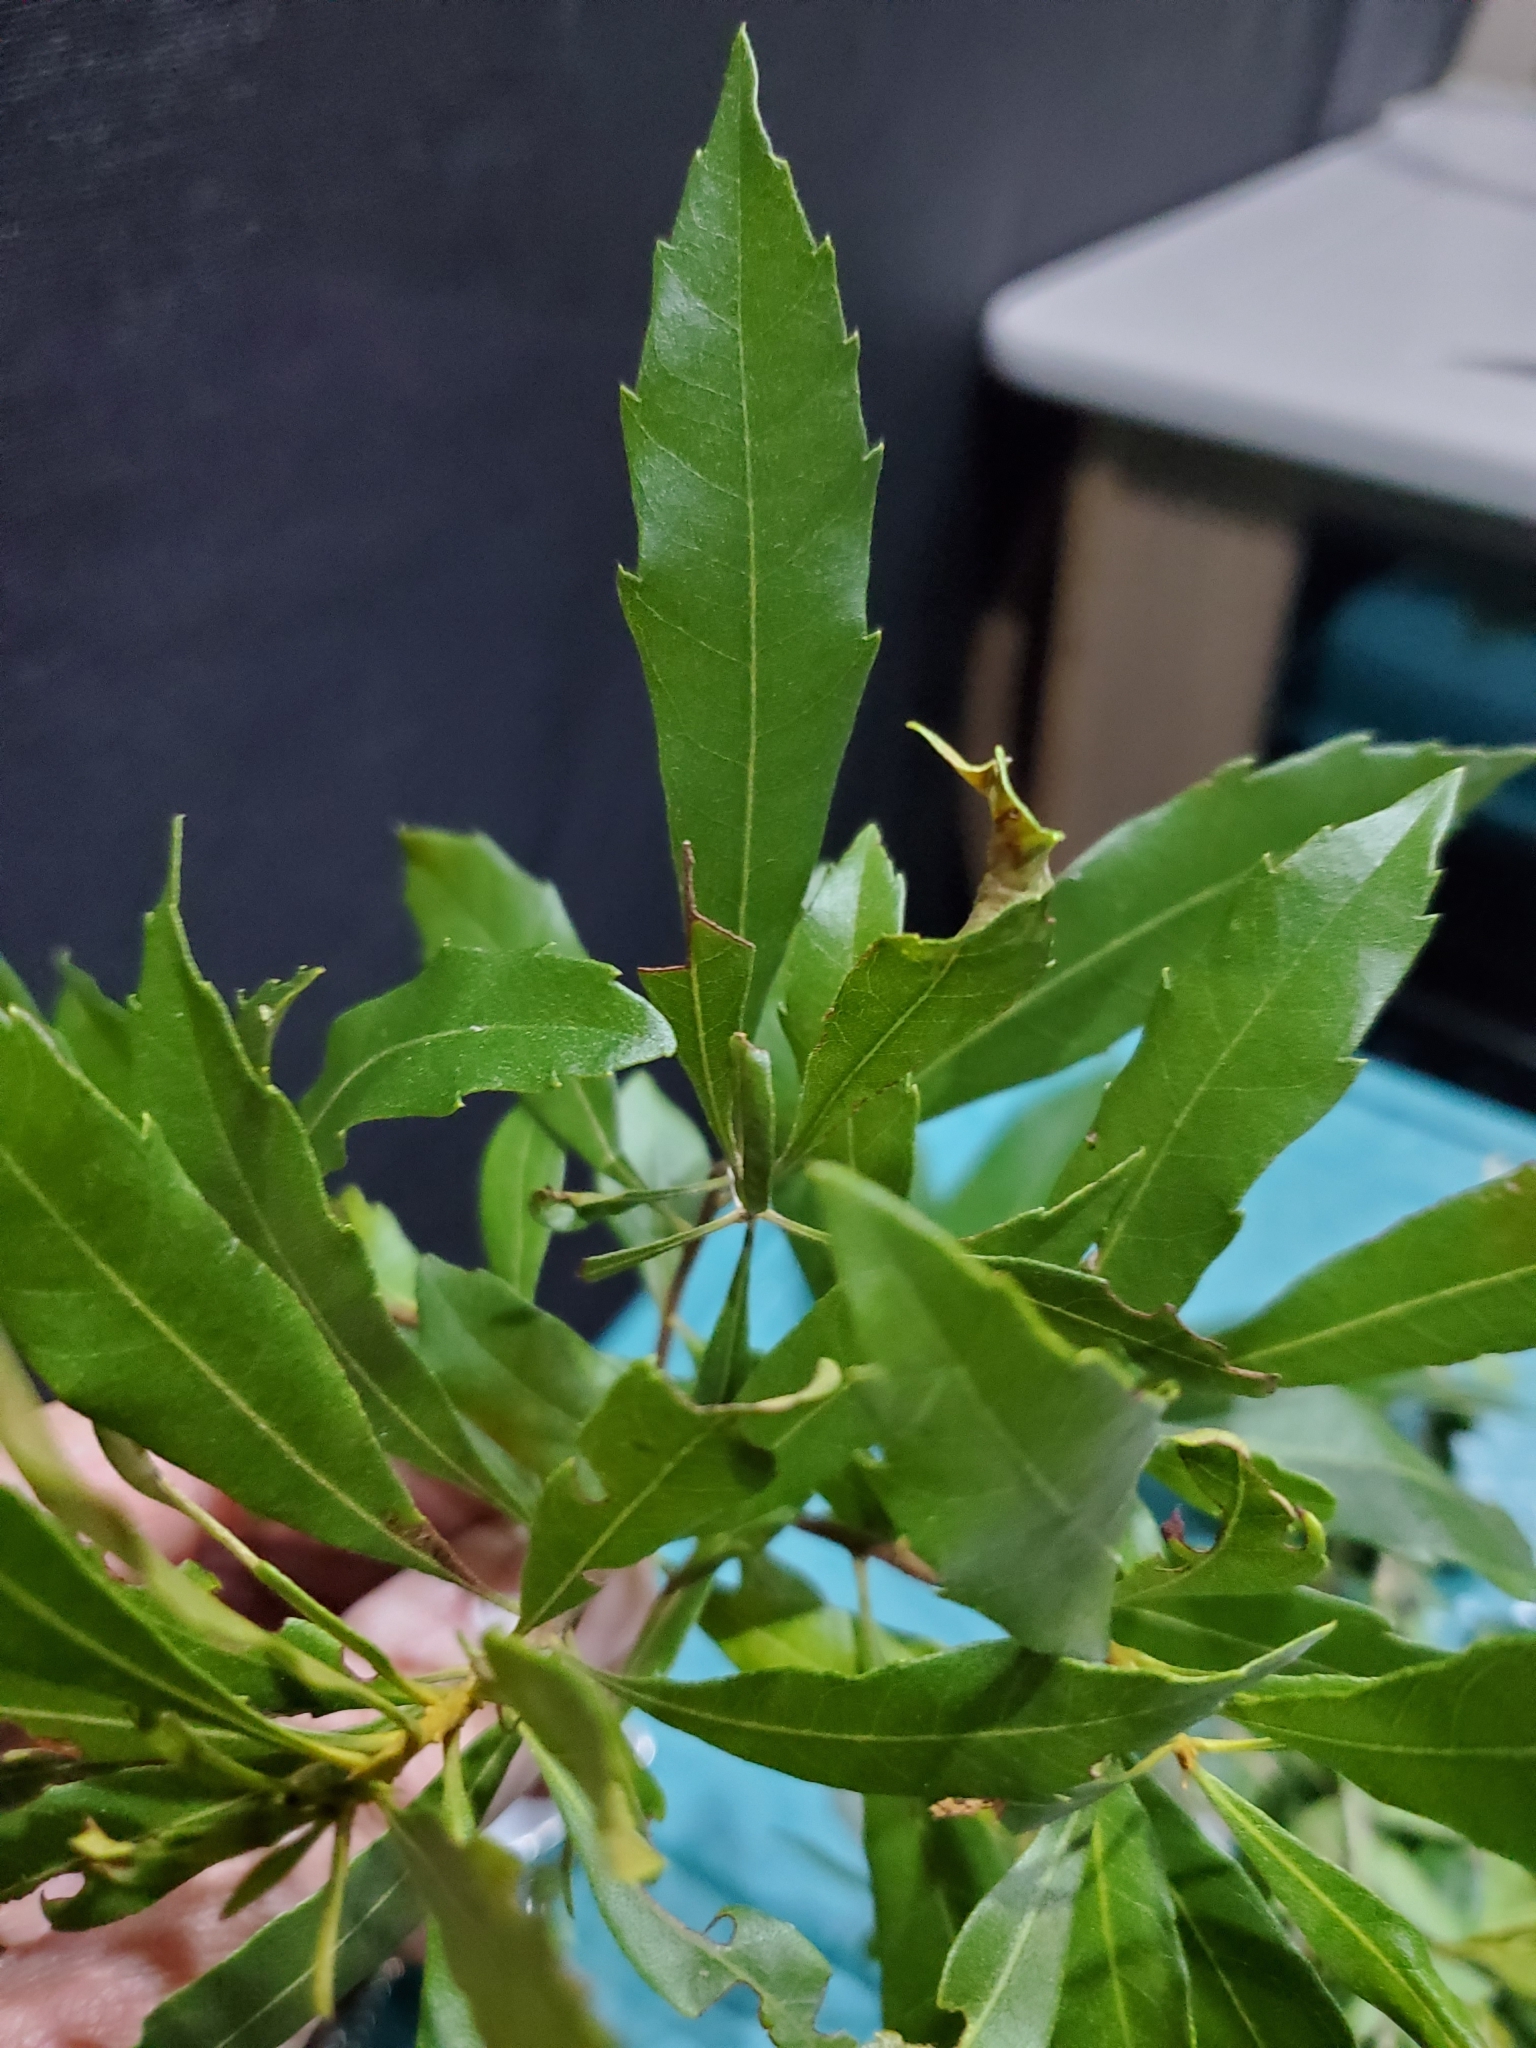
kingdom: Plantae
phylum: Tracheophyta
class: Magnoliopsida
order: Fagales
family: Myricaceae
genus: Morella
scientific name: Morella cerifera
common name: Wax myrtle
